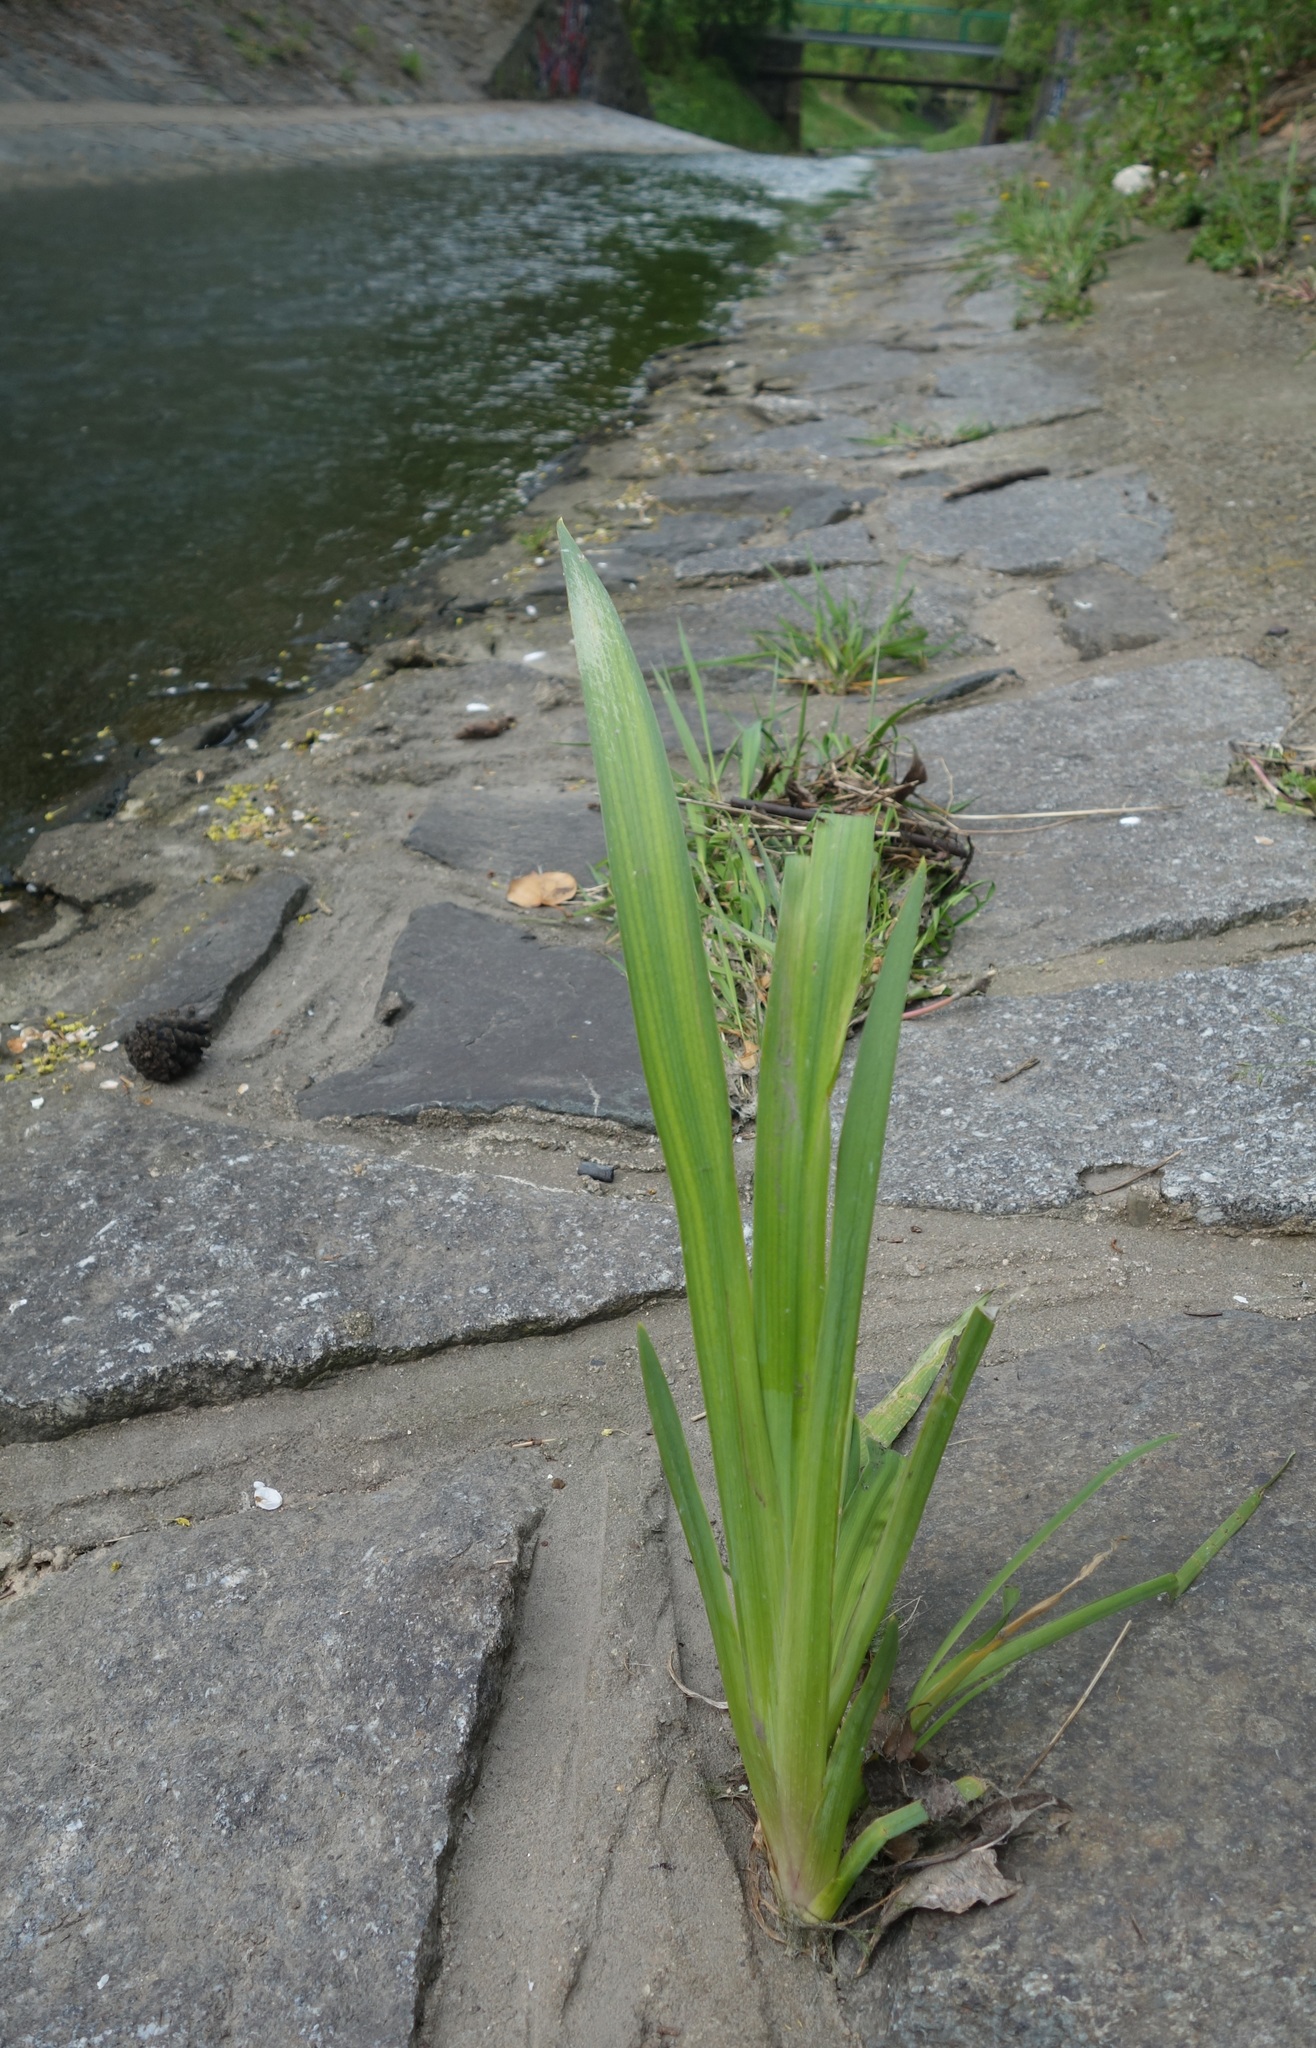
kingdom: Plantae
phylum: Tracheophyta
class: Liliopsida
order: Asparagales
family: Iridaceae
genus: Iris
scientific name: Iris pseudacorus
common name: Yellow flag
